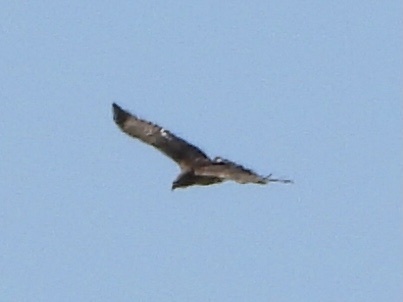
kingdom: Animalia
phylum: Chordata
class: Aves
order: Accipitriformes
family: Accipitridae
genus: Buteo
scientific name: Buteo jamaicensis
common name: Red-tailed hawk
